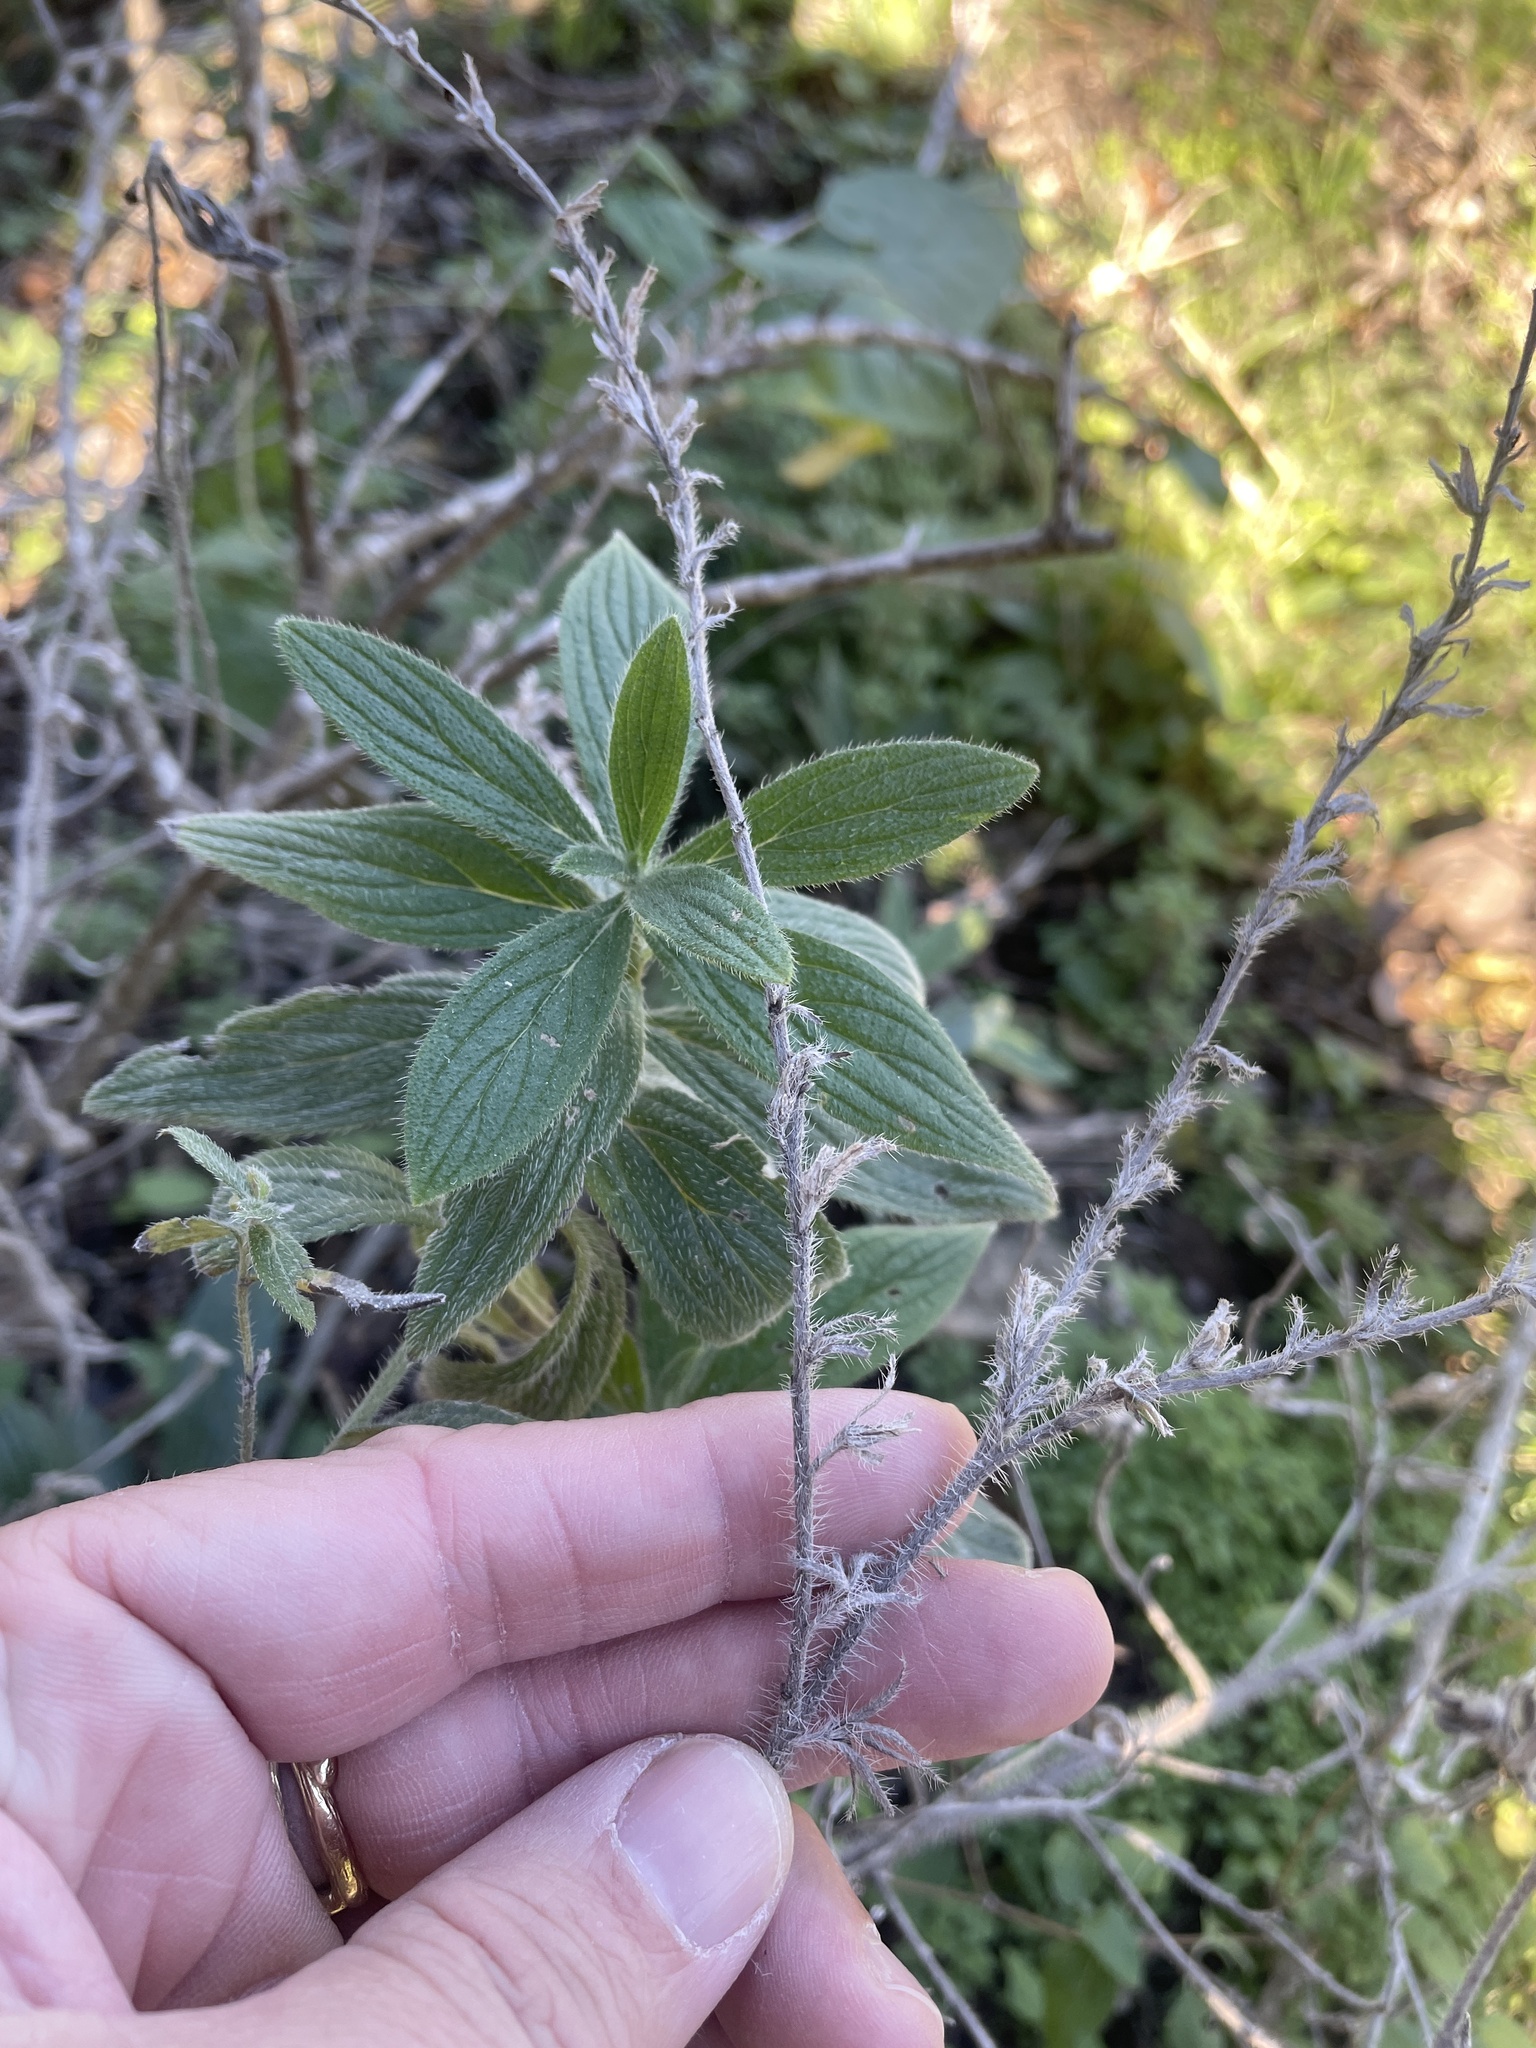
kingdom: Plantae
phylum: Tracheophyta
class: Magnoliopsida
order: Boraginales
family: Boraginaceae
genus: Lithospermum
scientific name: Lithospermum caroliniense
